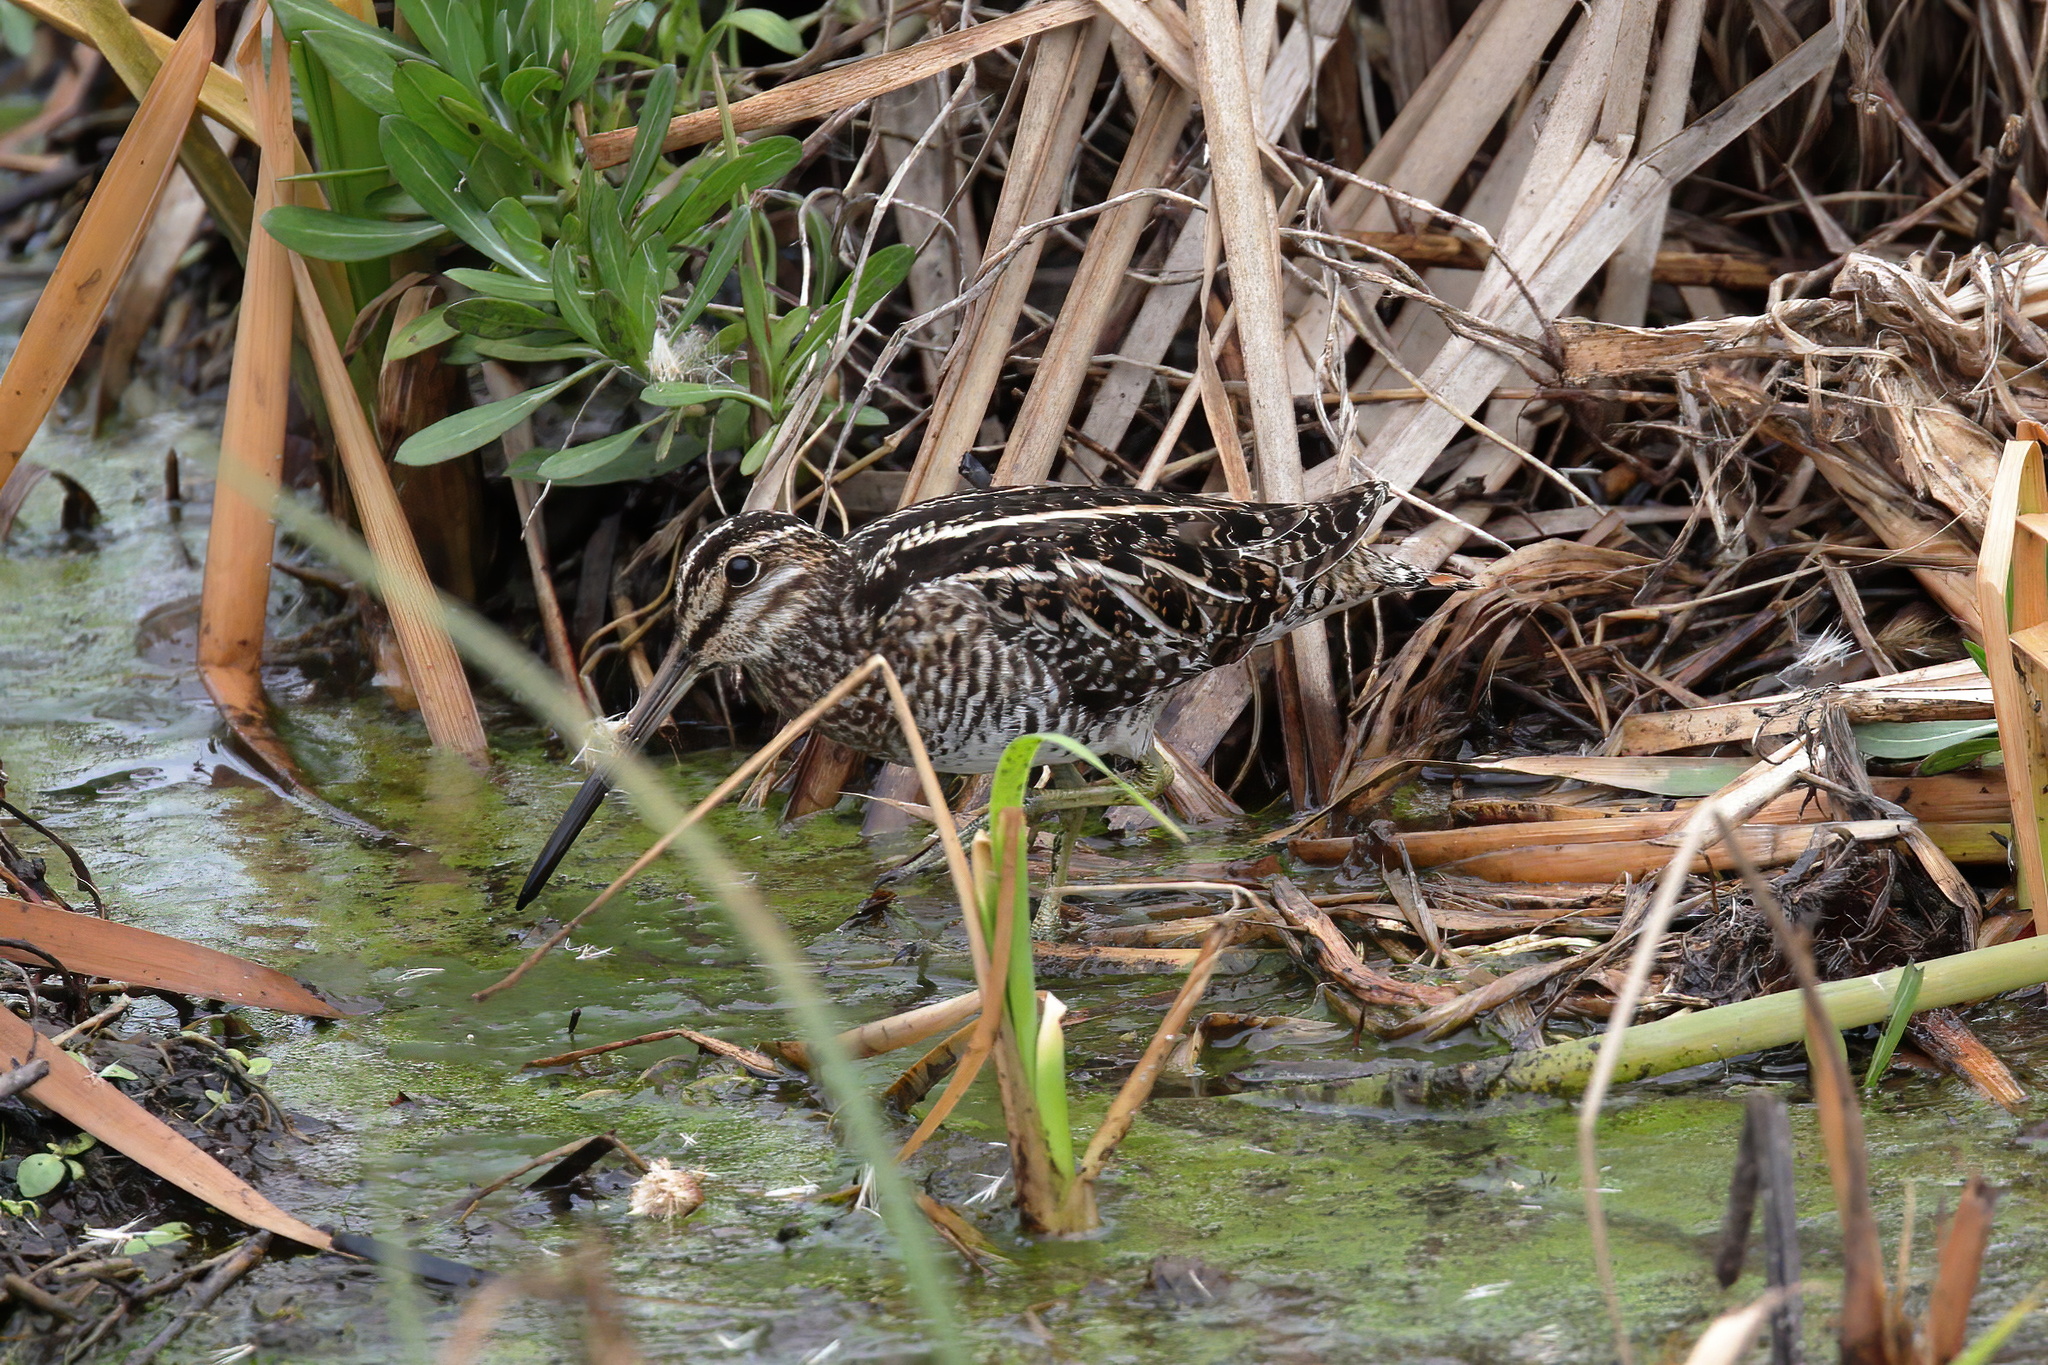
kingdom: Animalia
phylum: Chordata
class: Aves
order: Charadriiformes
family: Scolopacidae
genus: Gallinago
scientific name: Gallinago delicata
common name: Wilson's snipe
